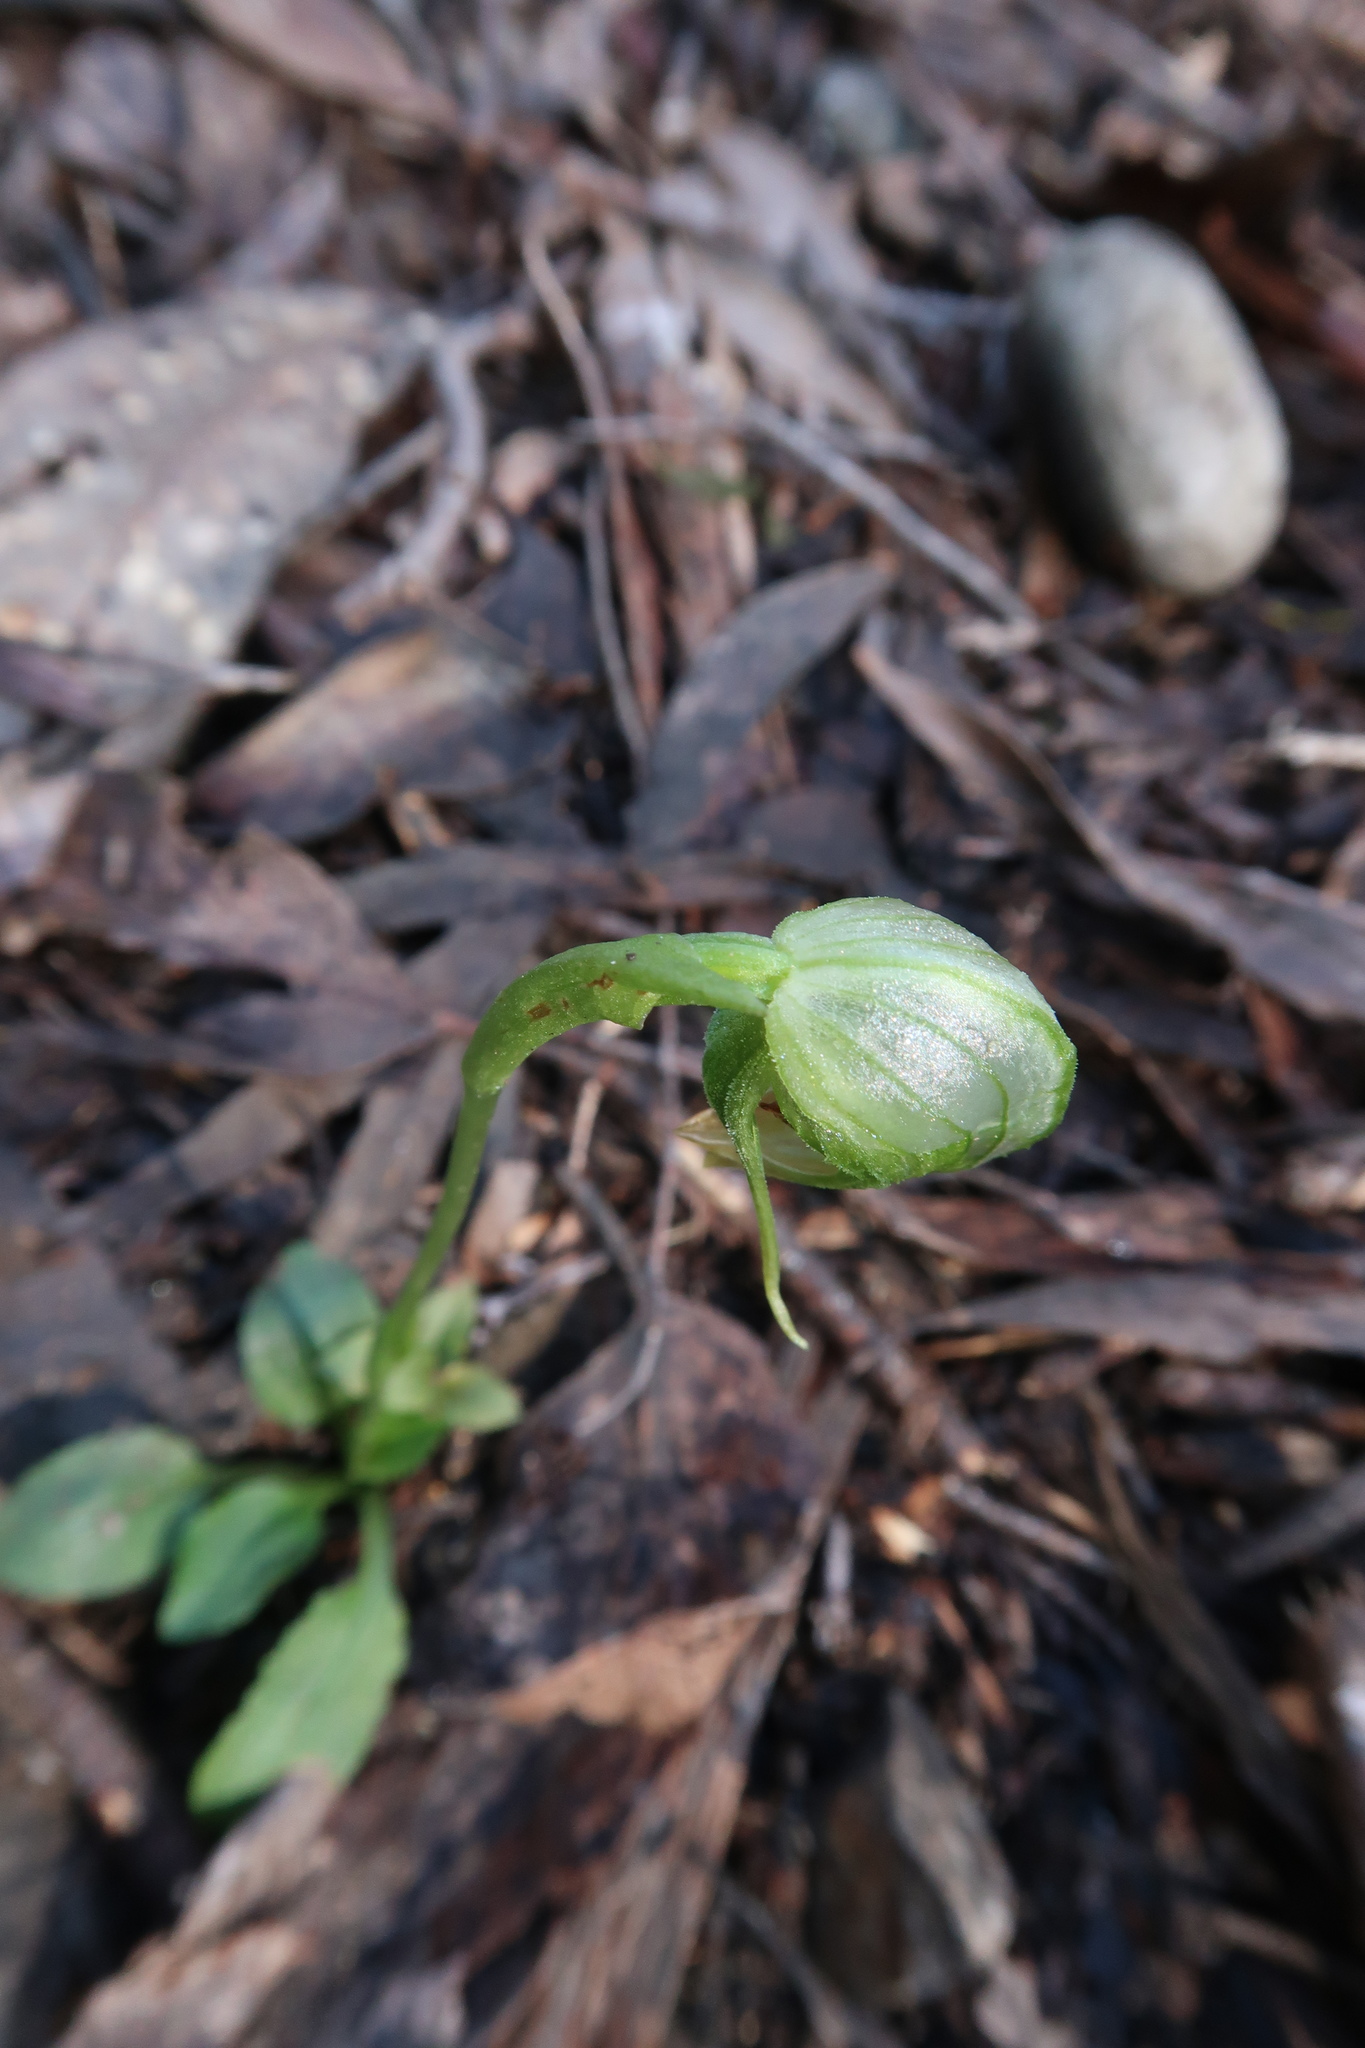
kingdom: Plantae
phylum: Tracheophyta
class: Liliopsida
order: Asparagales
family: Orchidaceae
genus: Pterostylis
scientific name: Pterostylis nutans
